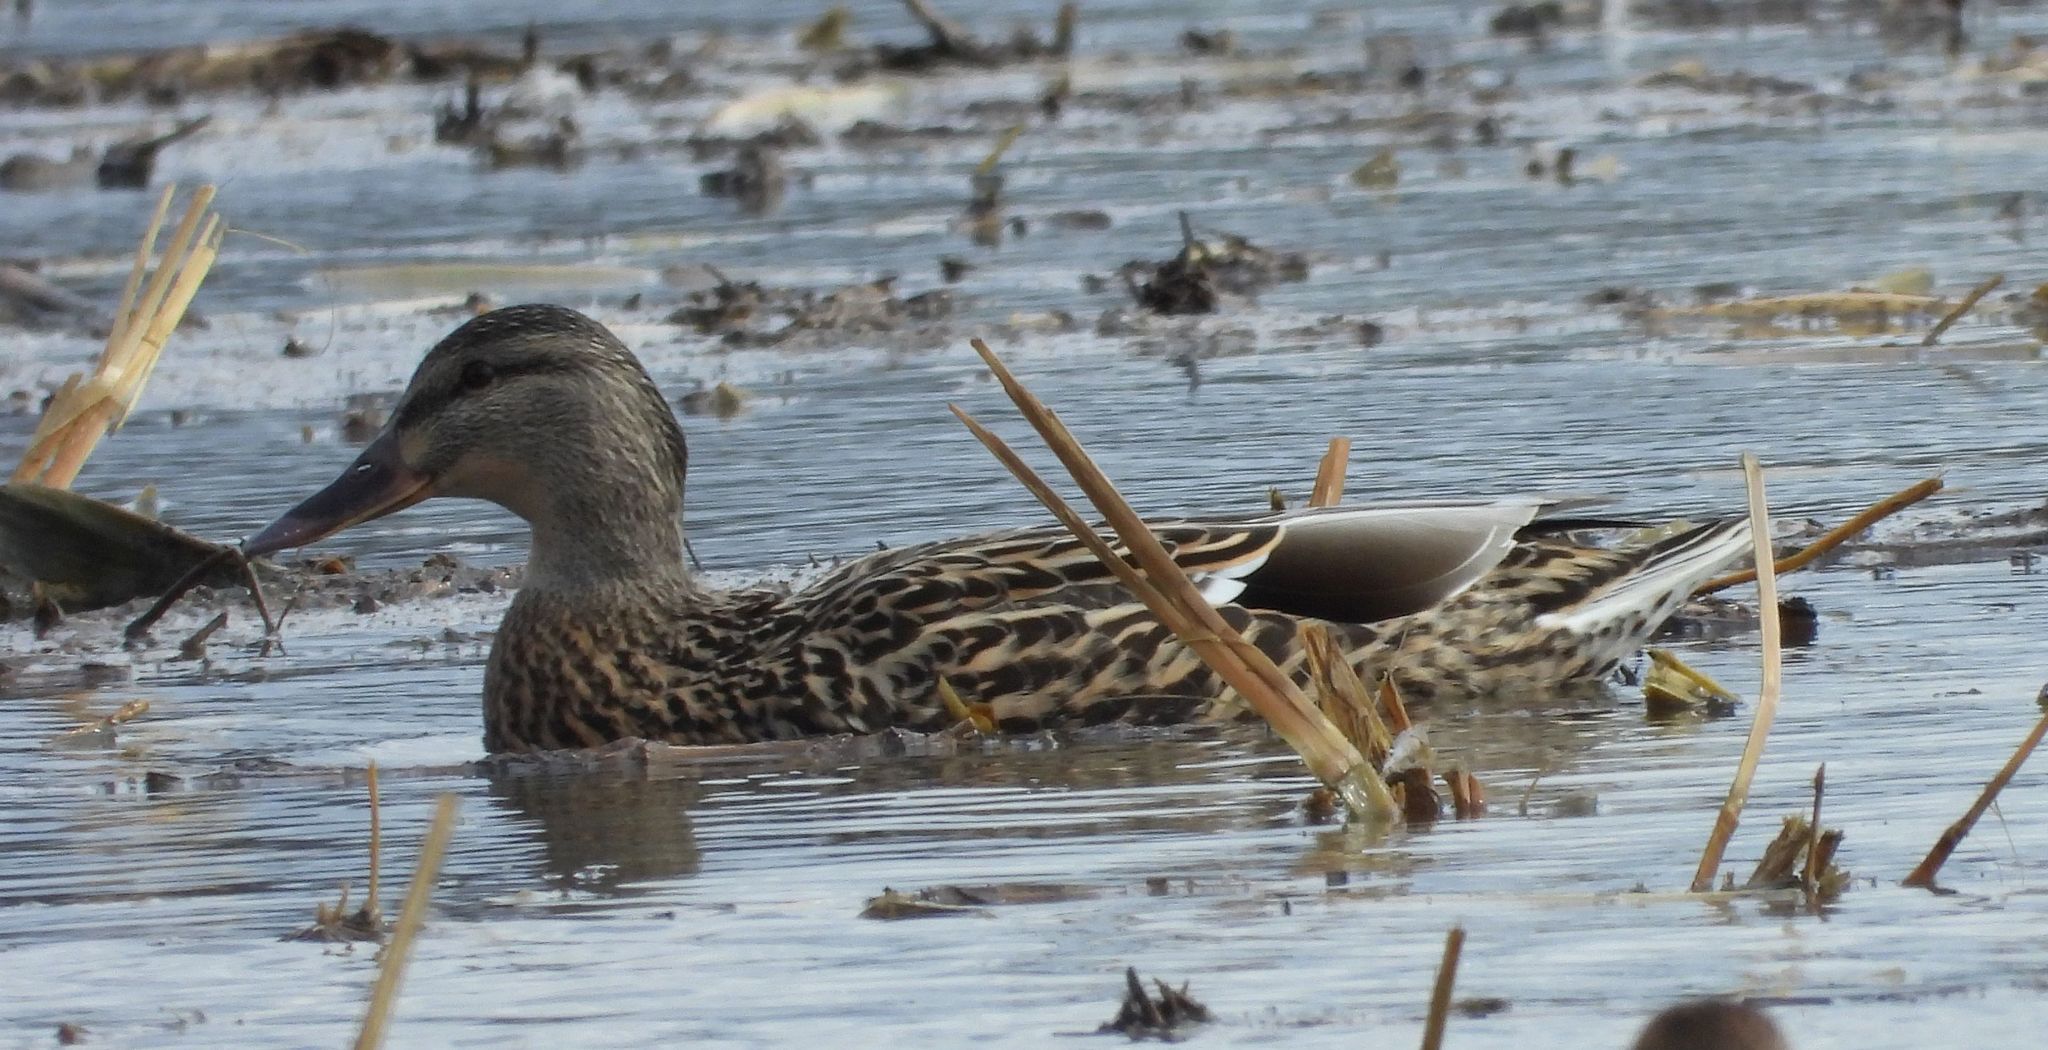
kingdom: Animalia
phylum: Chordata
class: Aves
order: Anseriformes
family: Anatidae
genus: Anas
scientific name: Anas platyrhynchos
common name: Mallard
